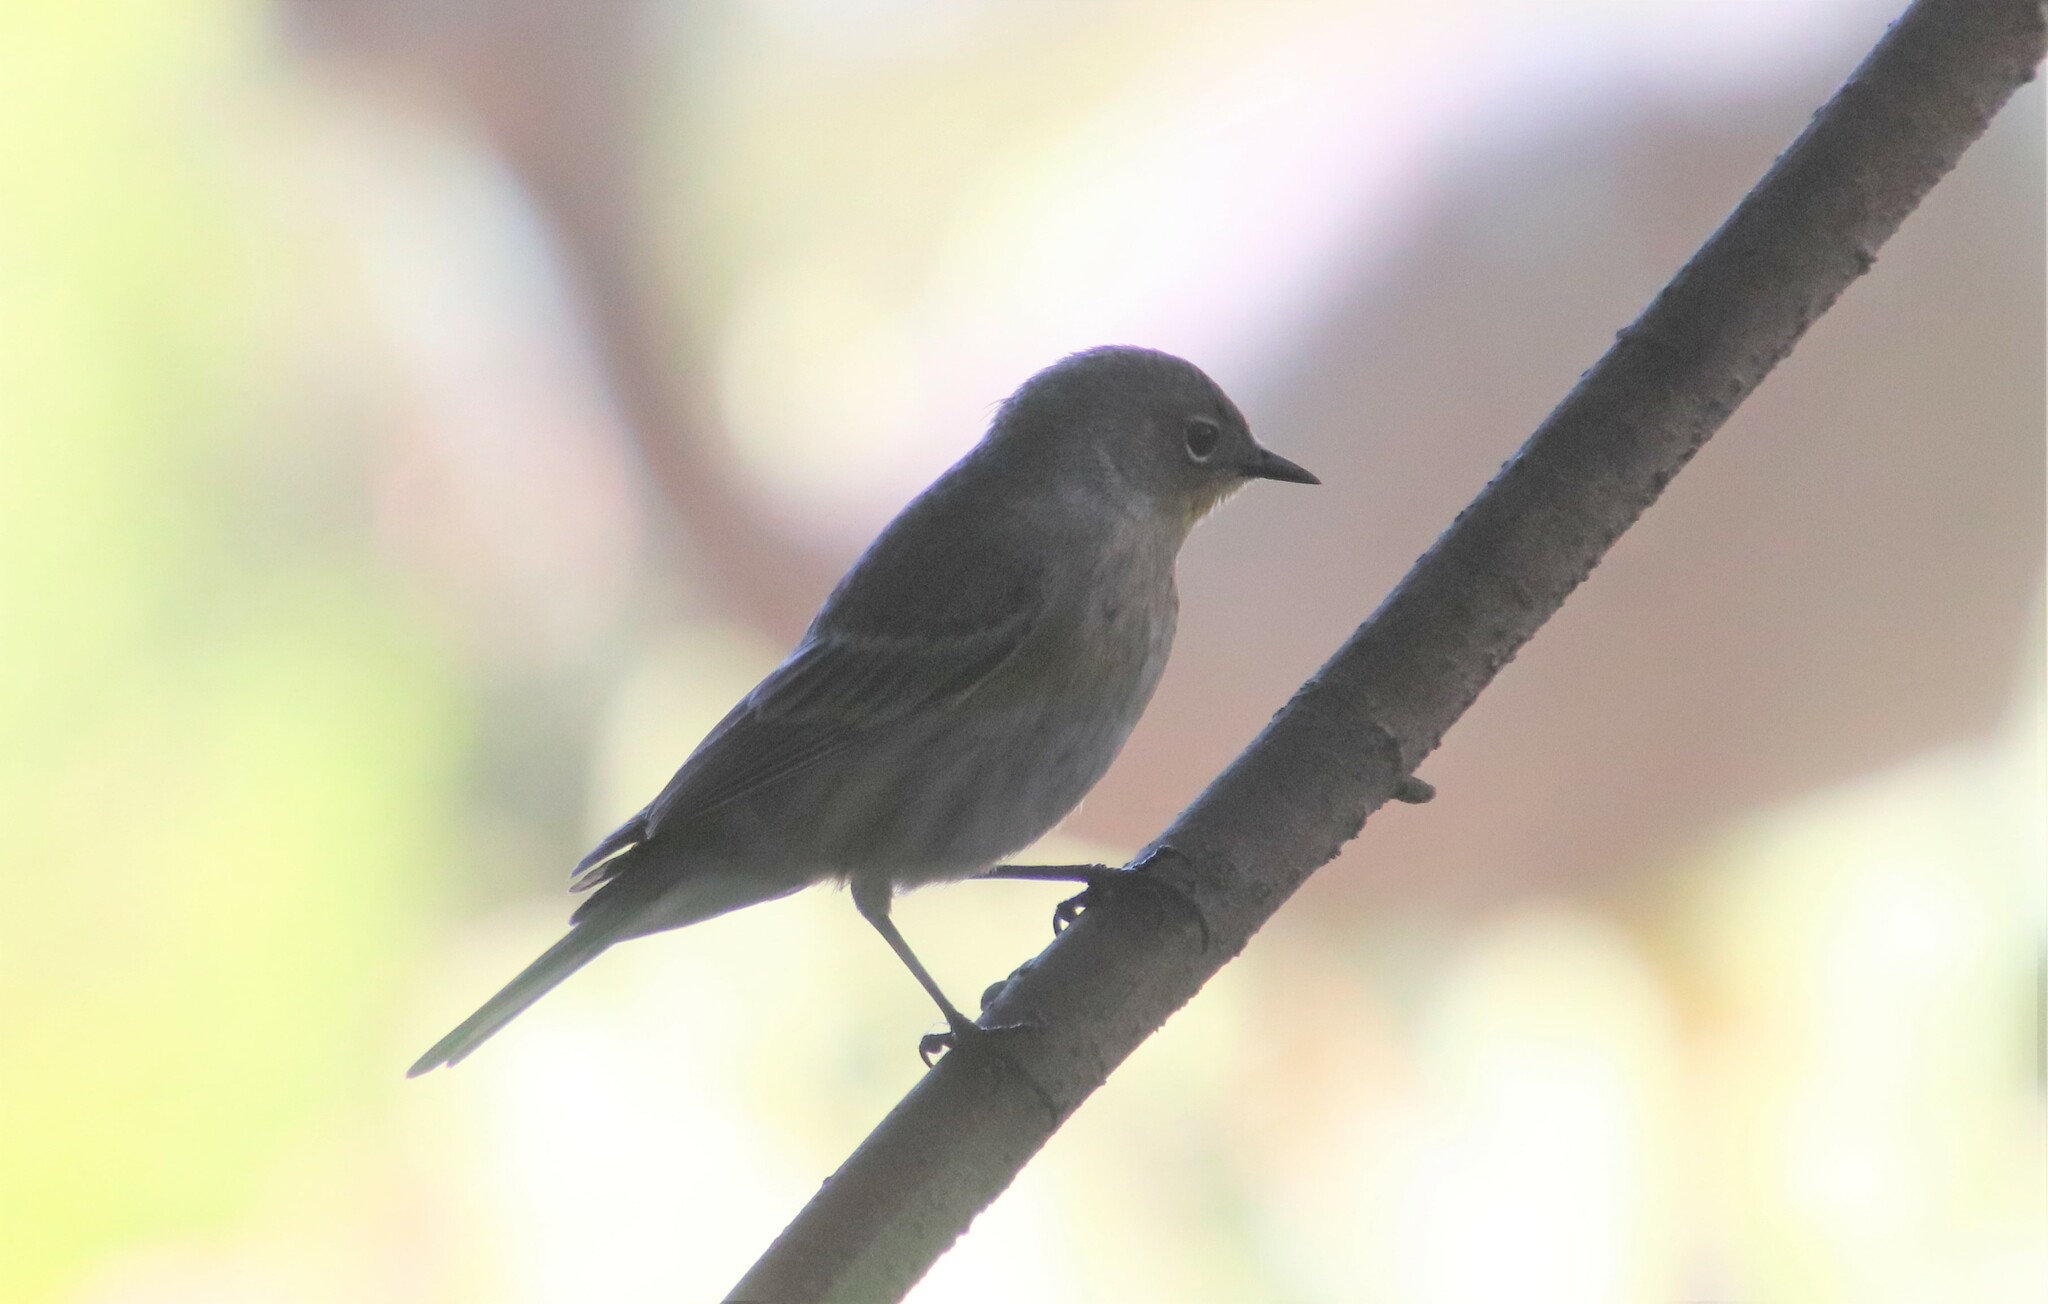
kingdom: Animalia
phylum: Chordata
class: Aves
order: Passeriformes
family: Parulidae
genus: Setophaga
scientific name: Setophaga coronata
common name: Myrtle warbler
